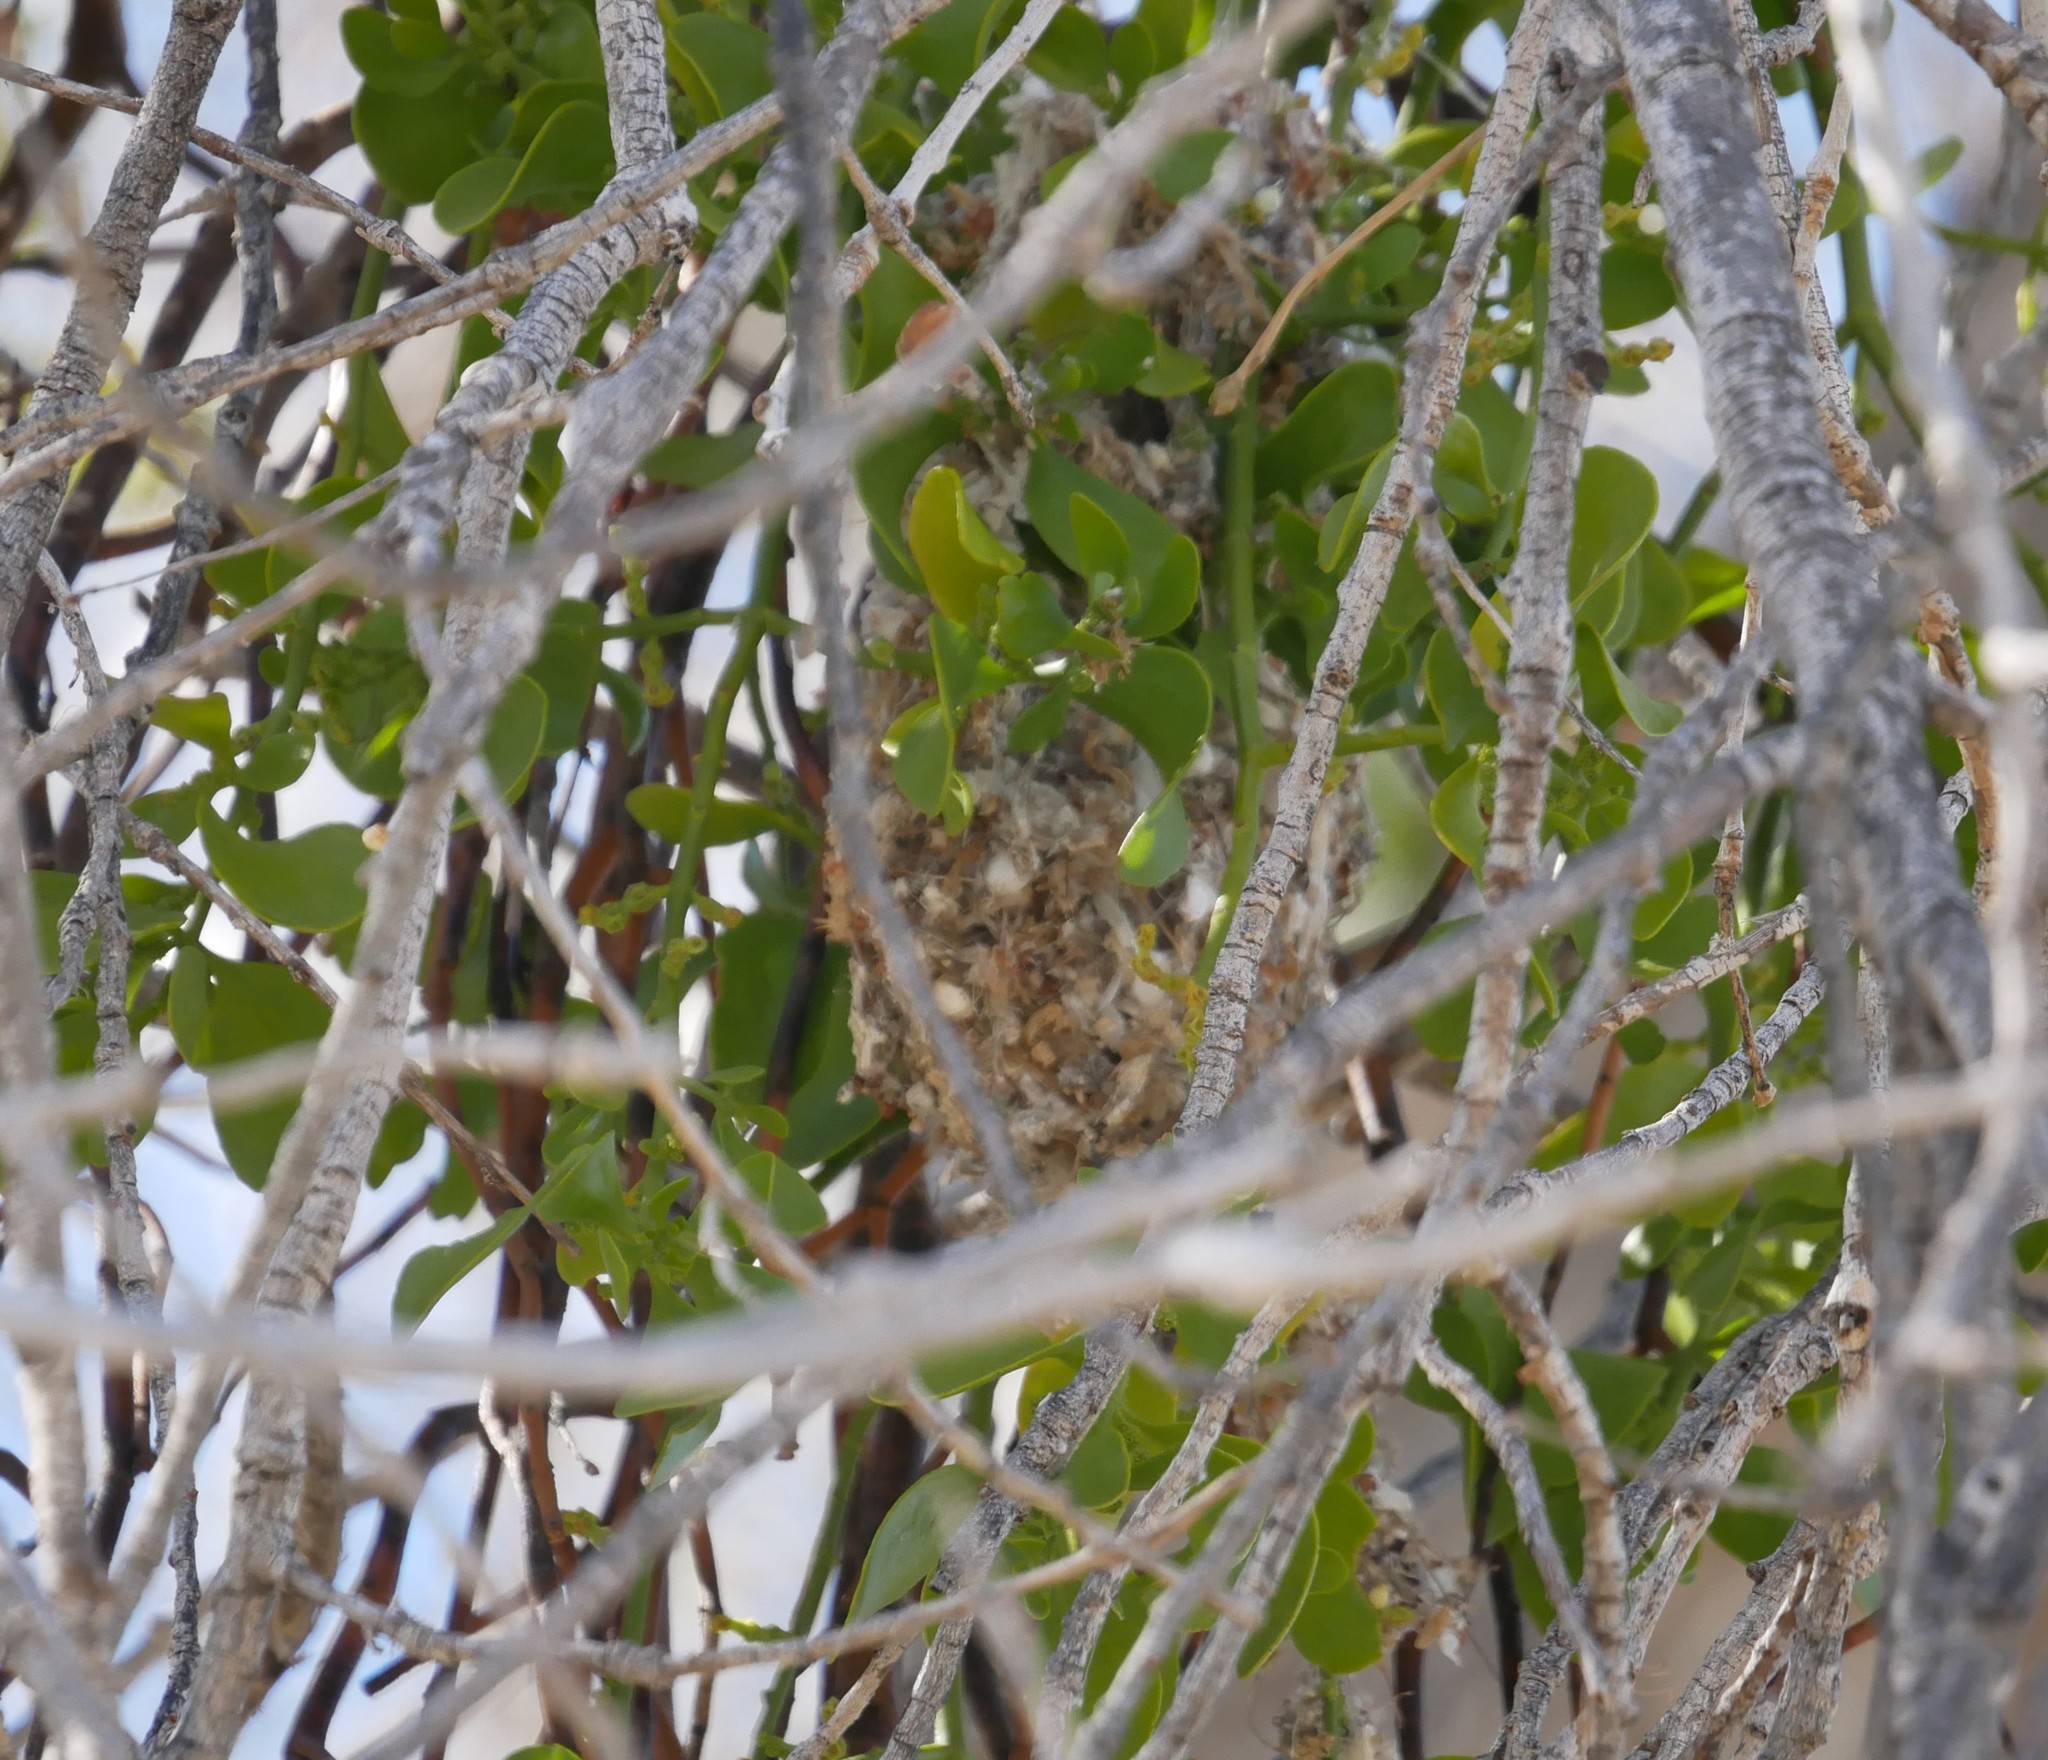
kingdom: Animalia
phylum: Chordata
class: Aves
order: Passeriformes
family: Aegithalidae
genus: Psaltriparus
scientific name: Psaltriparus minimus
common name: American bushtit
